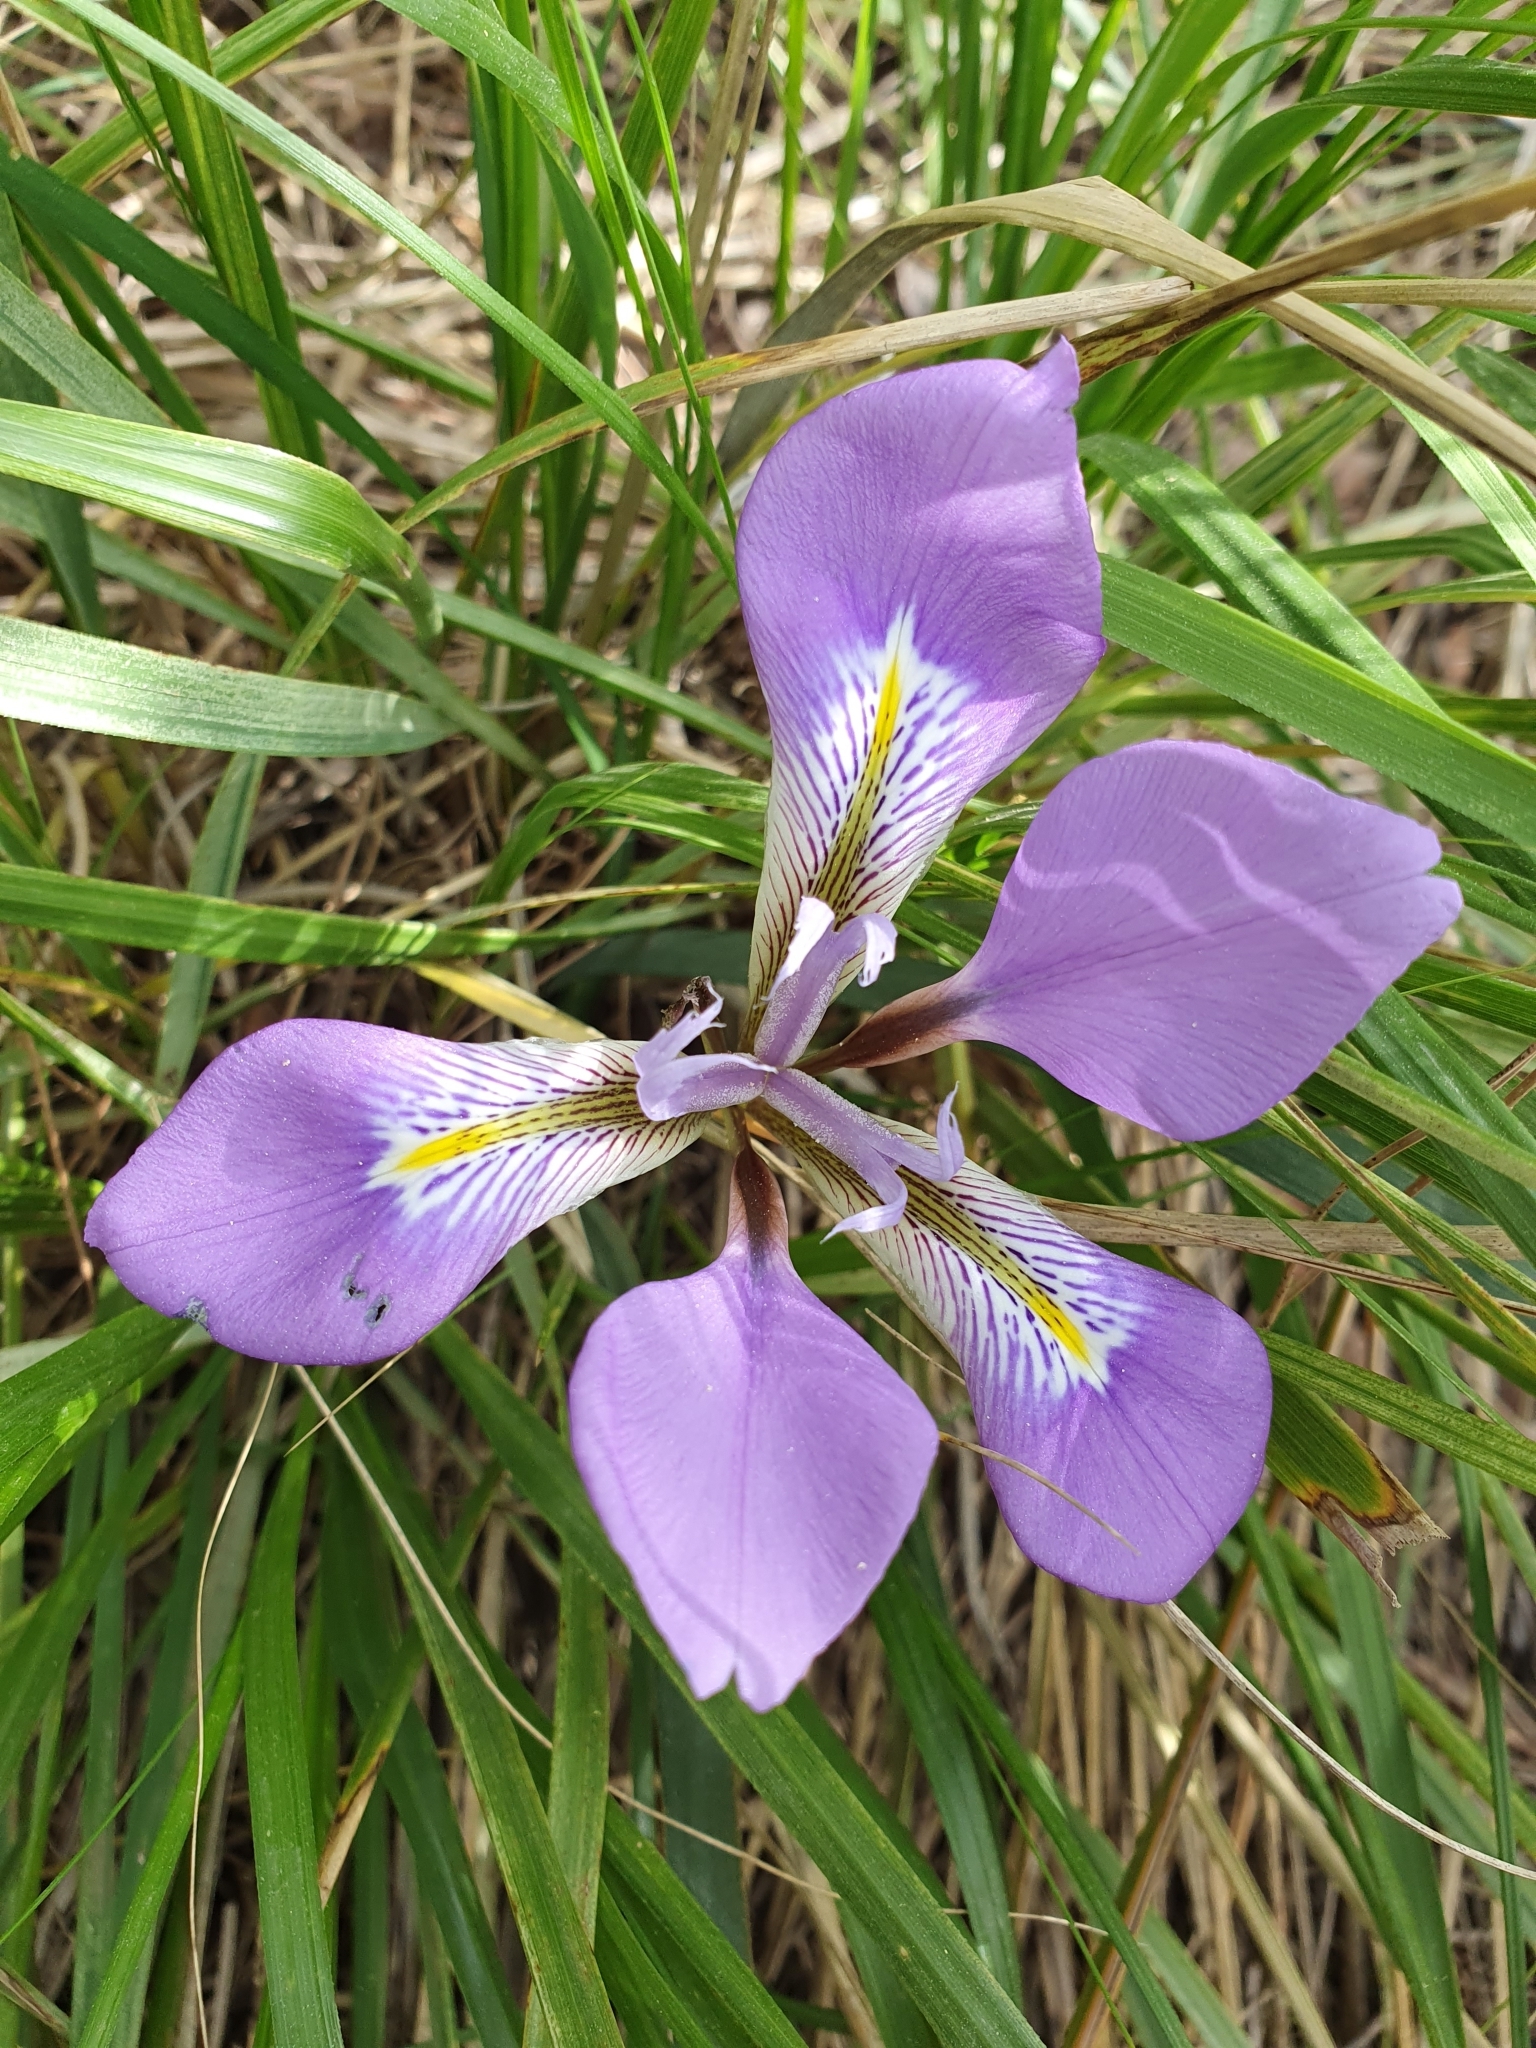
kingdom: Plantae
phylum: Tracheophyta
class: Liliopsida
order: Asparagales
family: Iridaceae
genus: Iris
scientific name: Iris unguicularis
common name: Algerian iris
